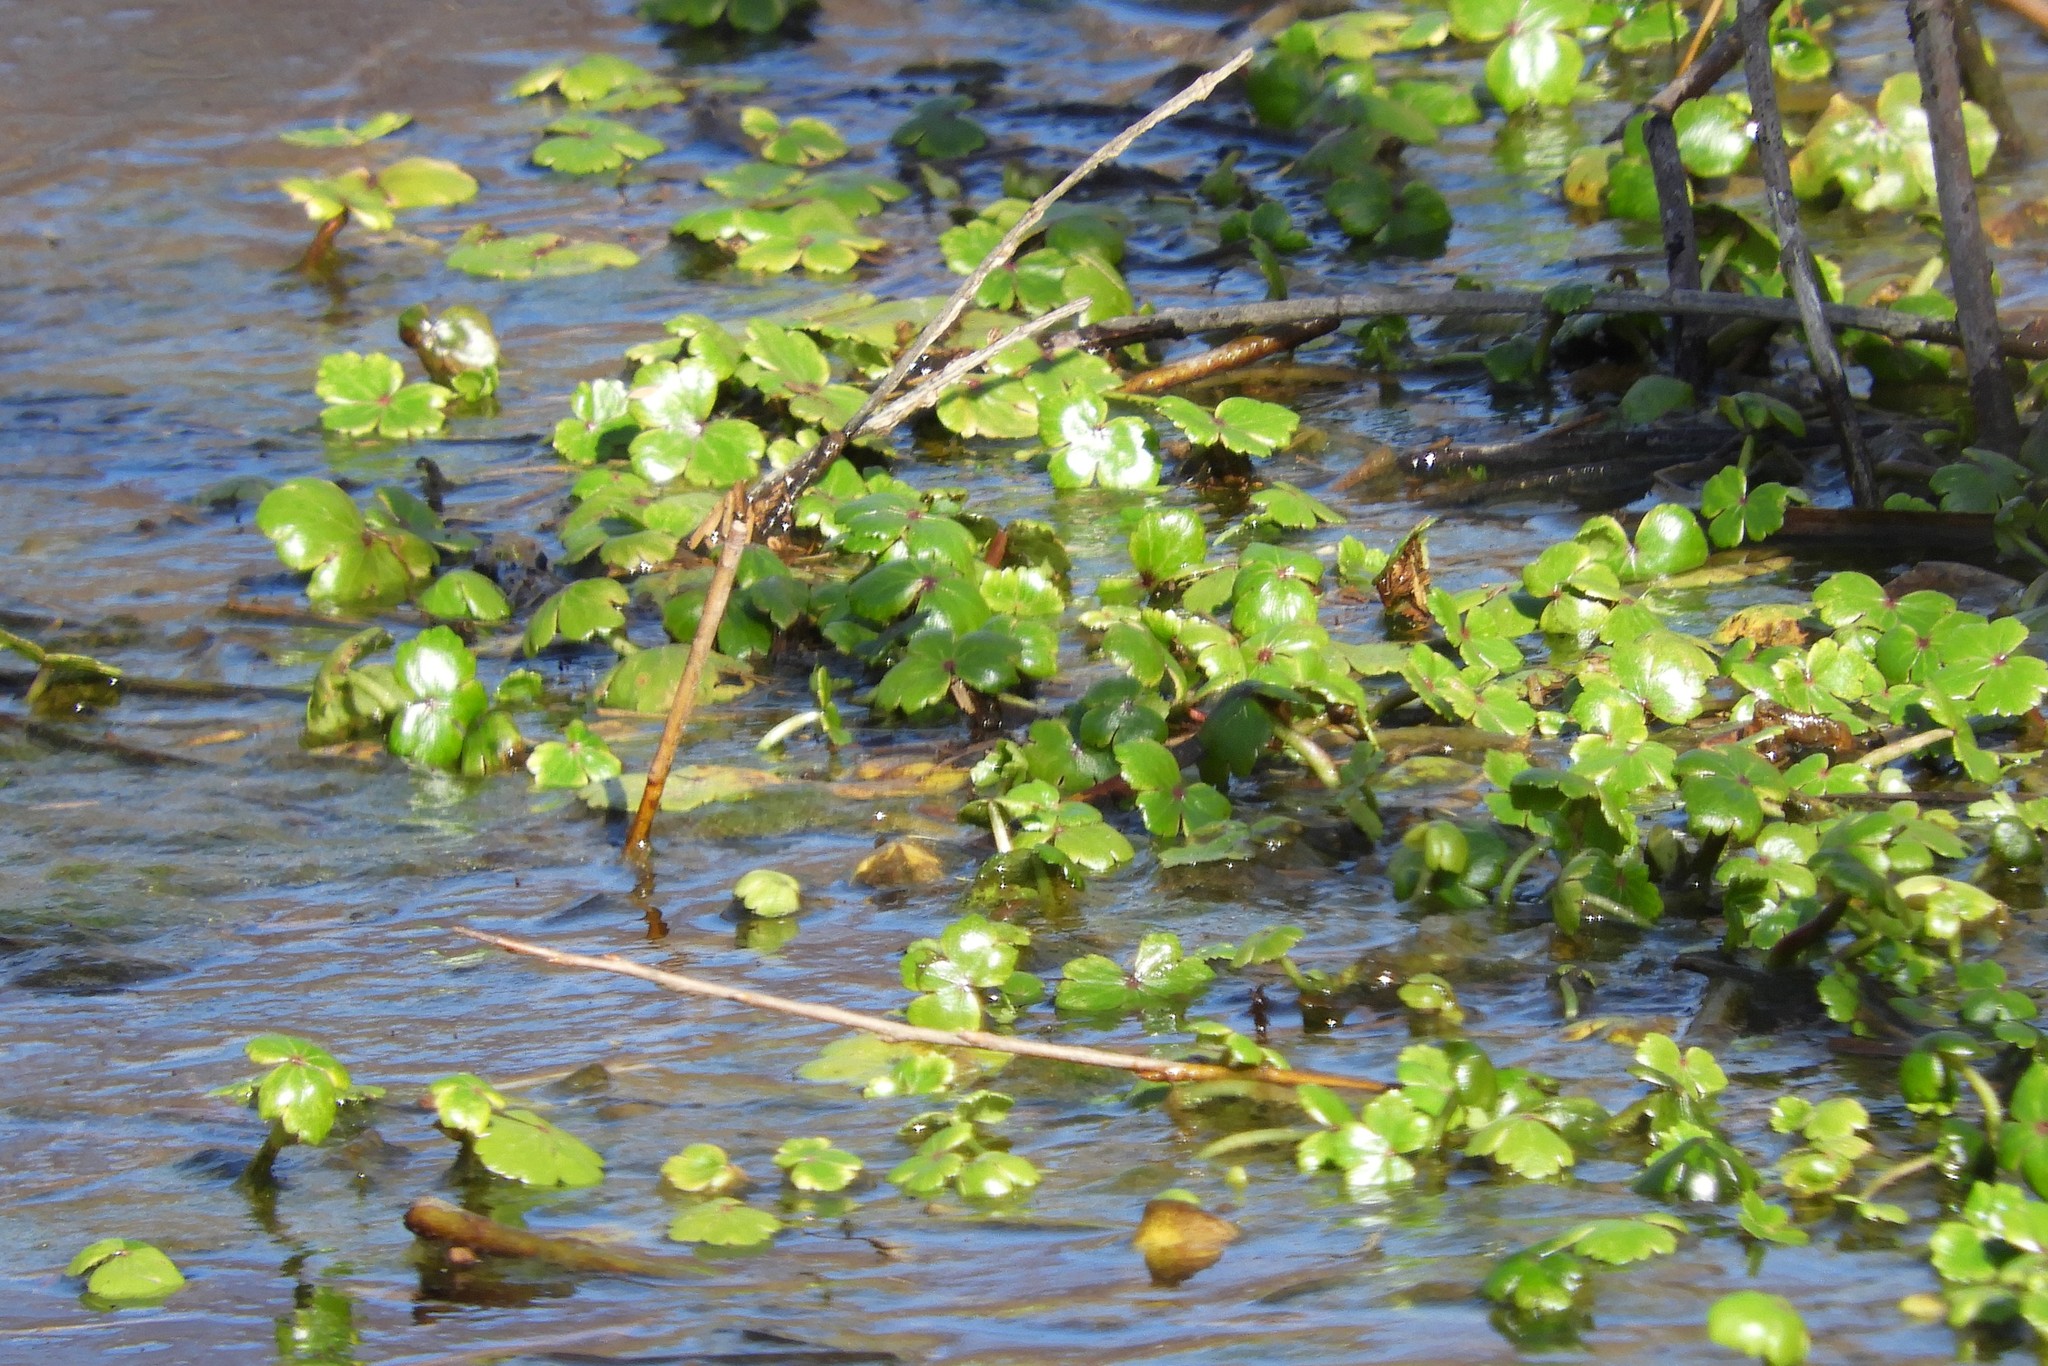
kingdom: Plantae
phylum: Tracheophyta
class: Magnoliopsida
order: Apiales
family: Araliaceae
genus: Hydrocotyle
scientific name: Hydrocotyle ranunculoides
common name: Floating pennywort
